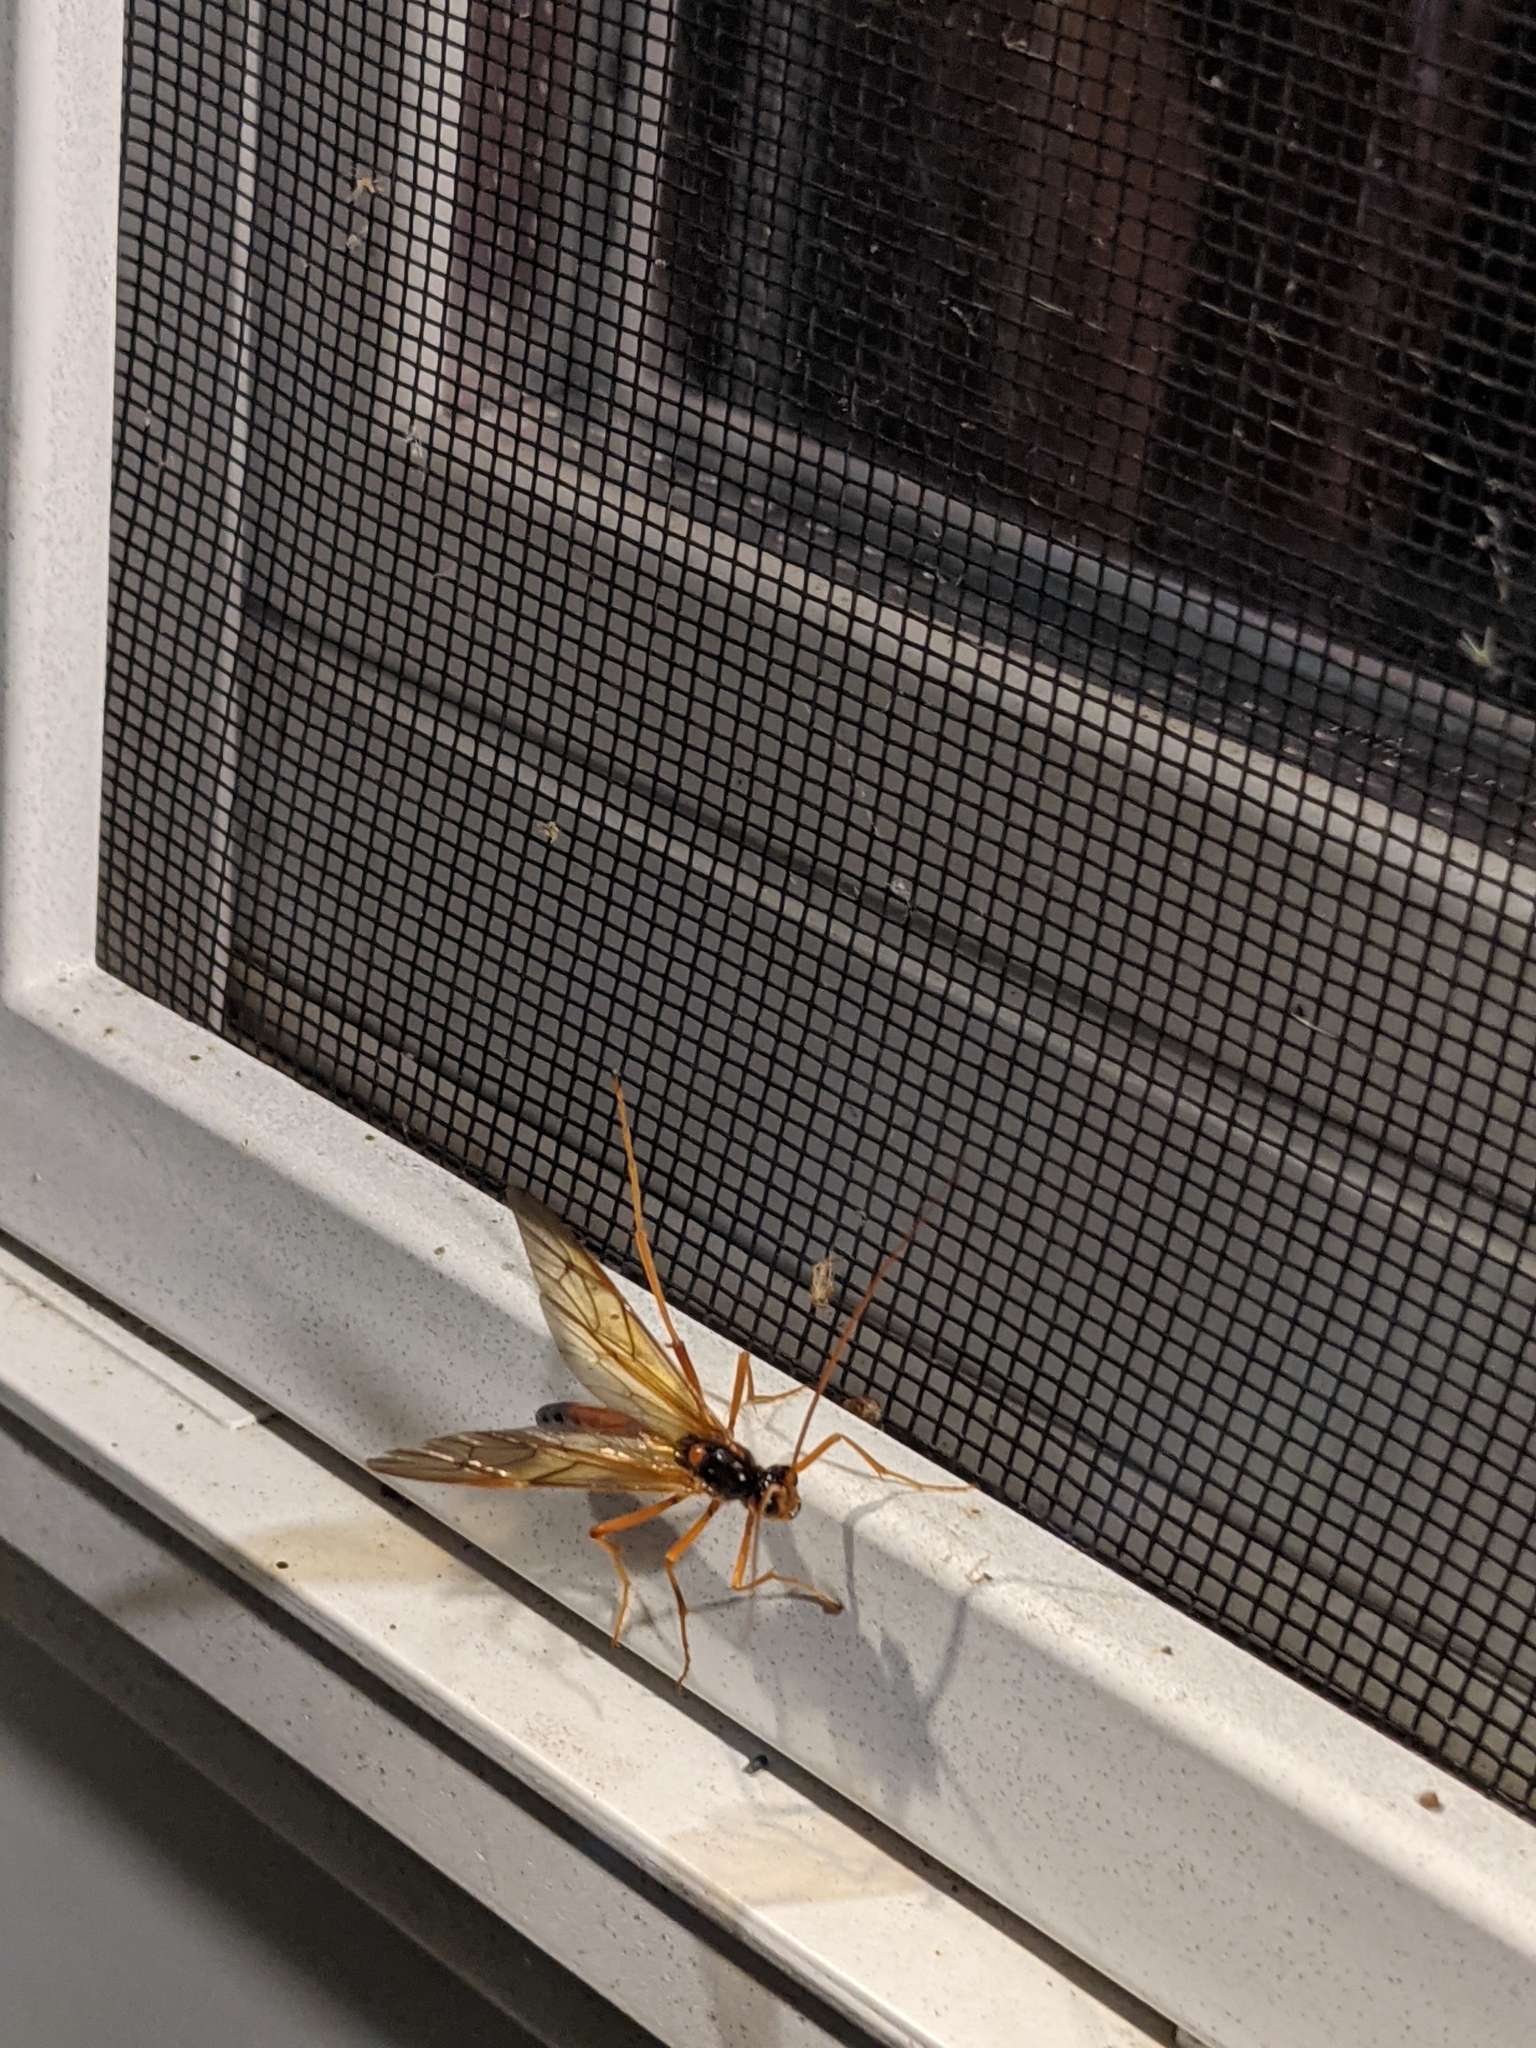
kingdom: Animalia
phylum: Arthropoda
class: Insecta
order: Hymenoptera
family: Ichneumonidae
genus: Opheltes
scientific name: Opheltes glaucopterus
